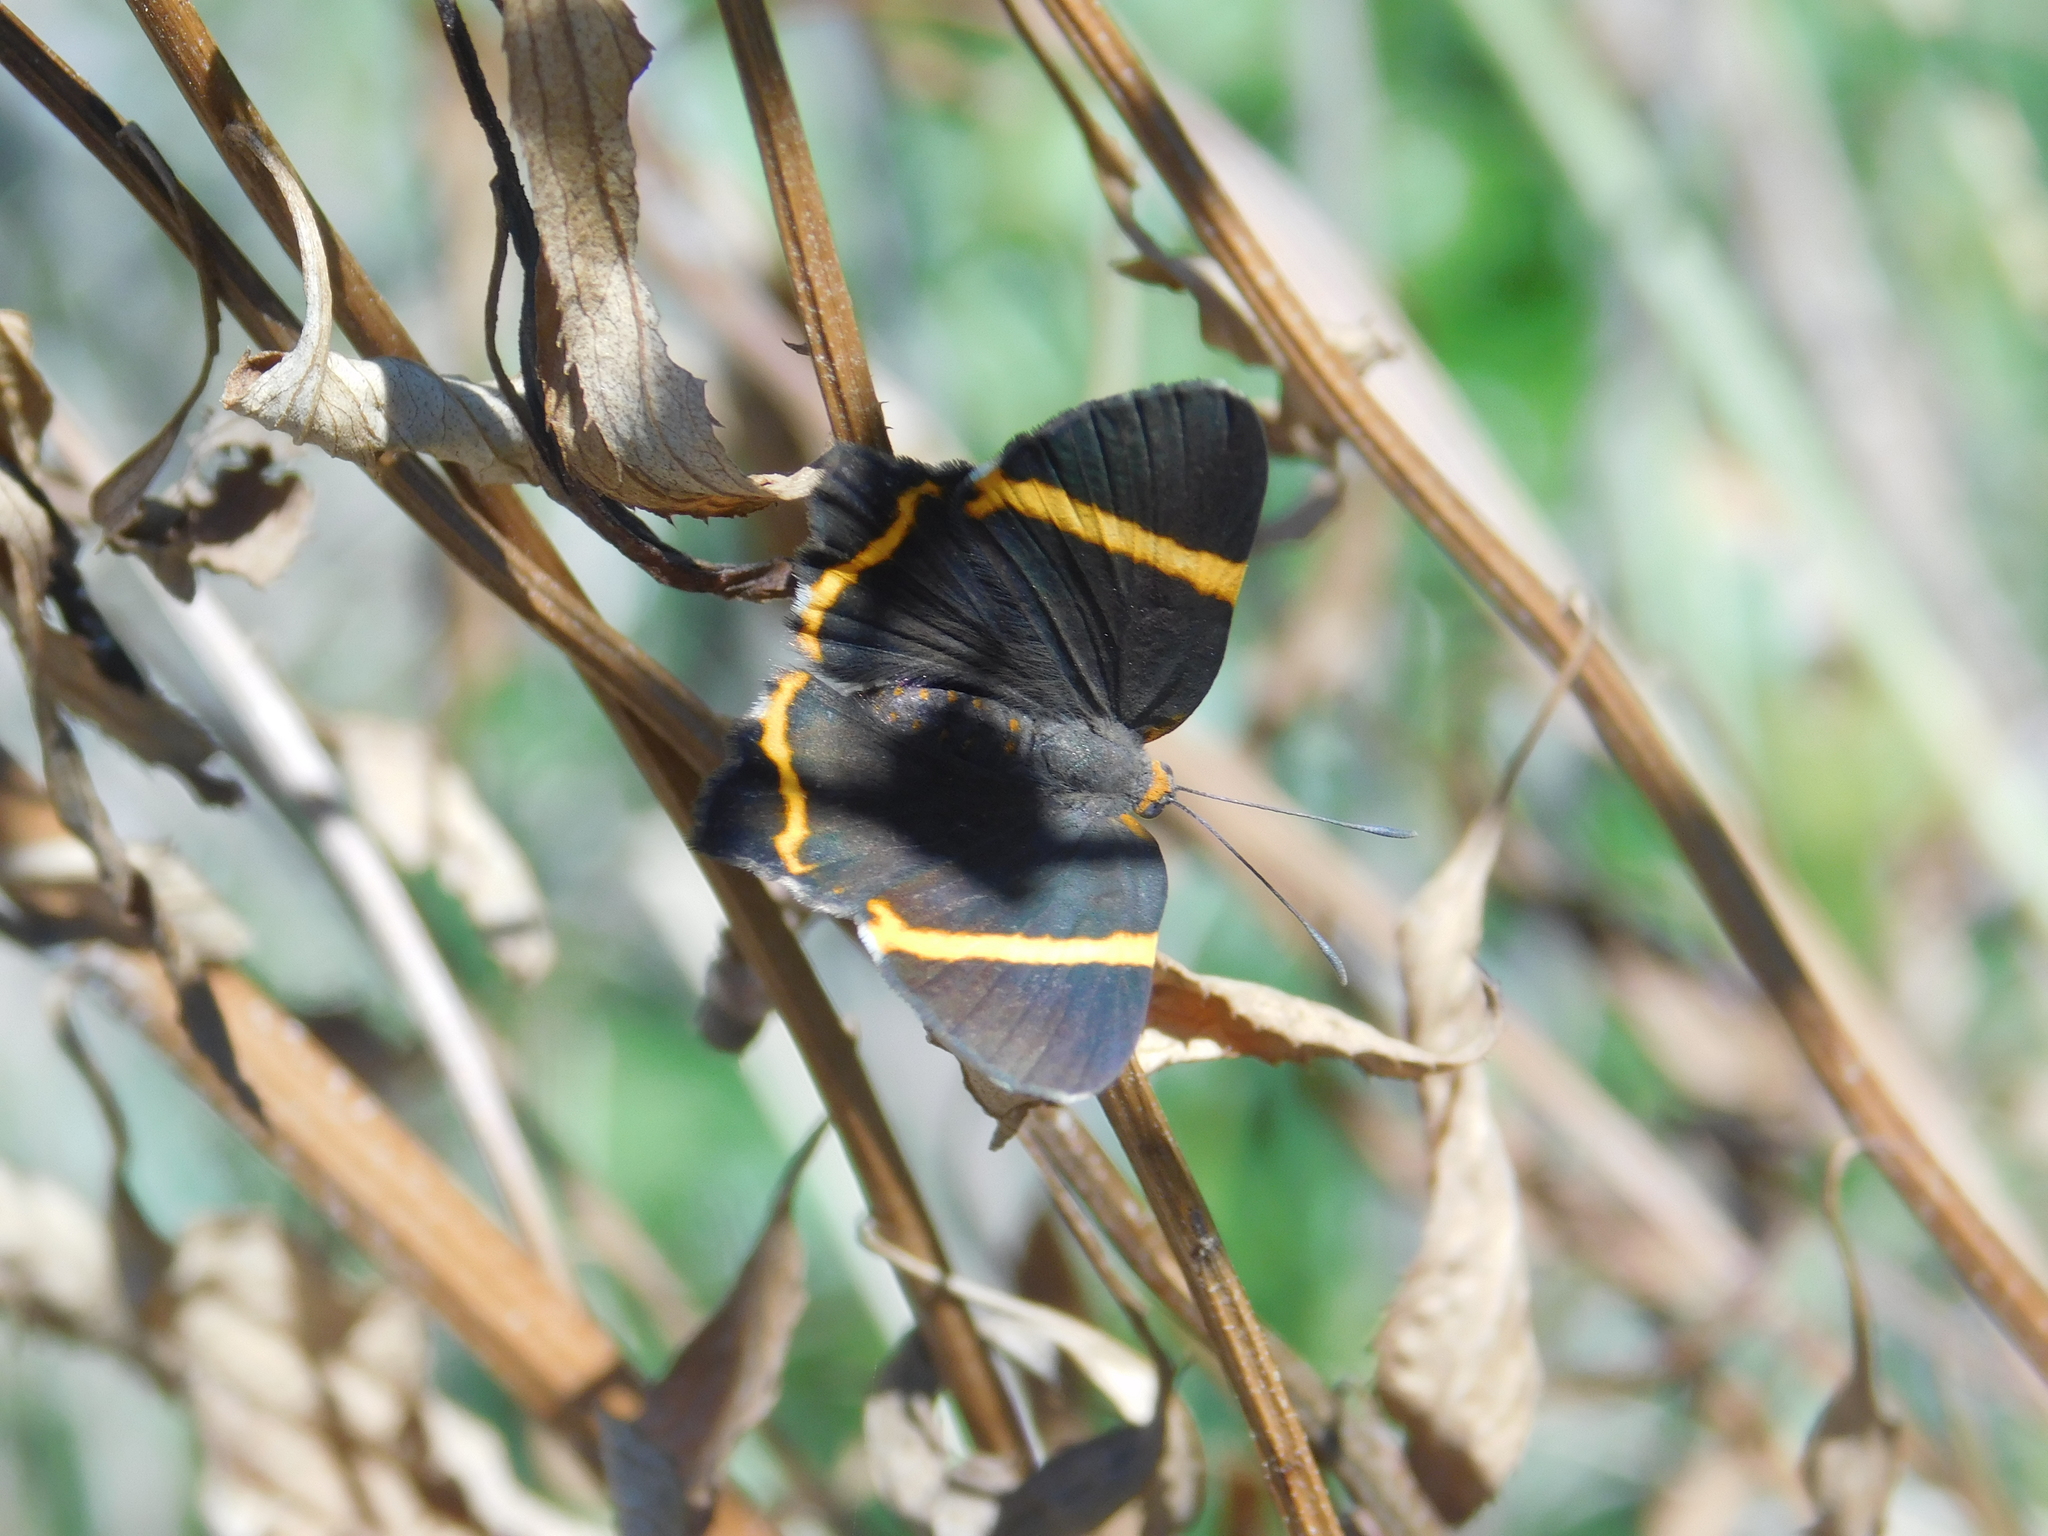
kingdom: Animalia
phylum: Arthropoda
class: Insecta
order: Lepidoptera
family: Riodinidae
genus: Riodina
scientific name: Riodina lysippoides
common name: Little dancer metalmark
